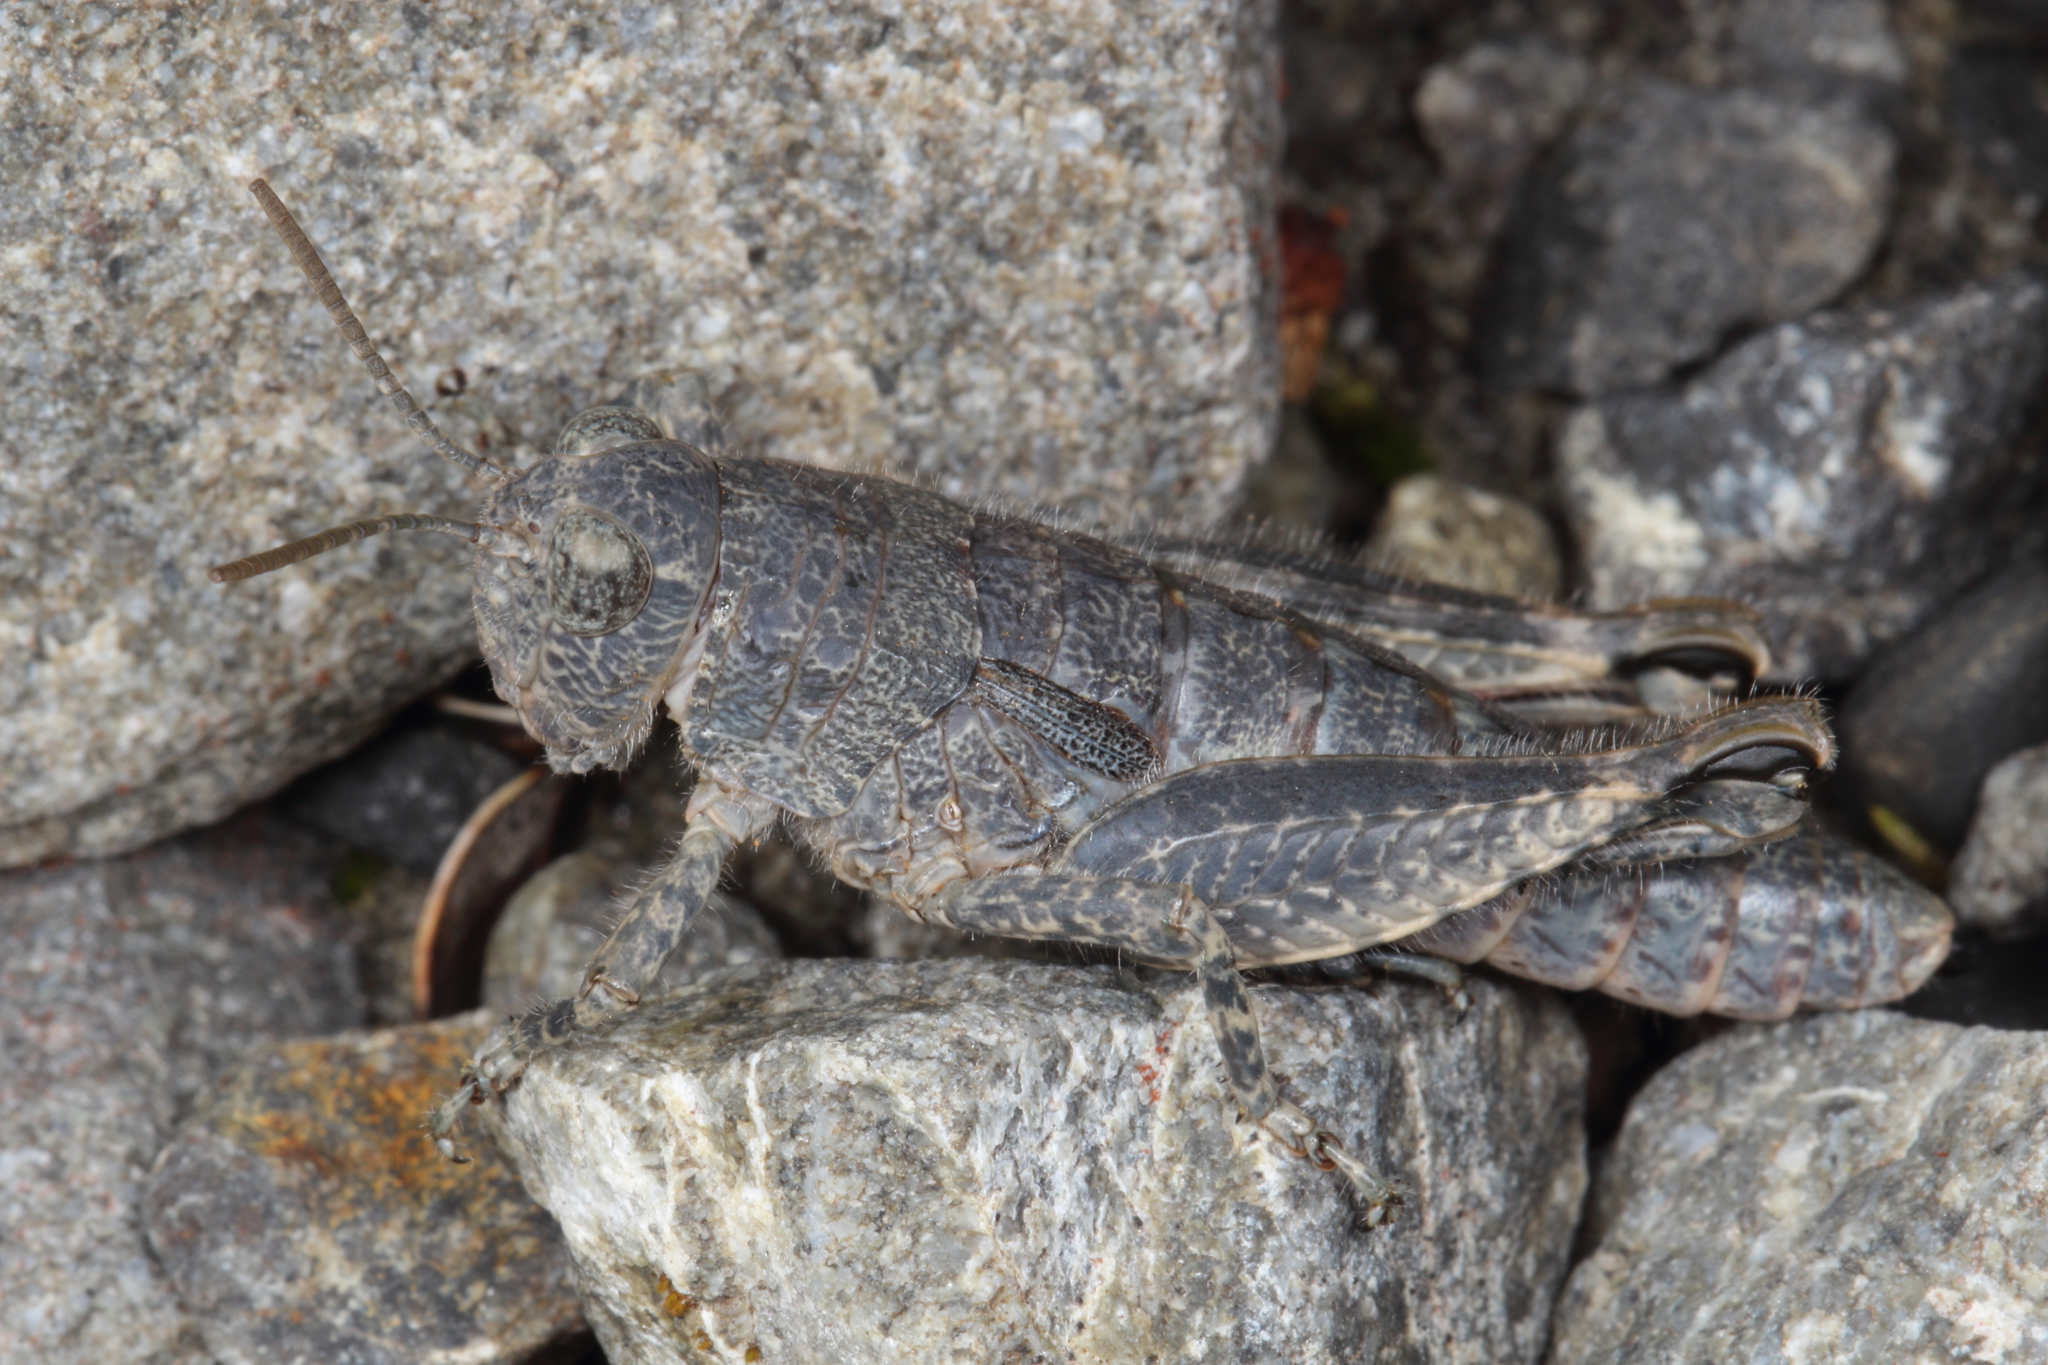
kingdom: Animalia
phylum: Arthropoda
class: Insecta
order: Orthoptera
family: Acrididae
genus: Sigaus
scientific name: Sigaus
